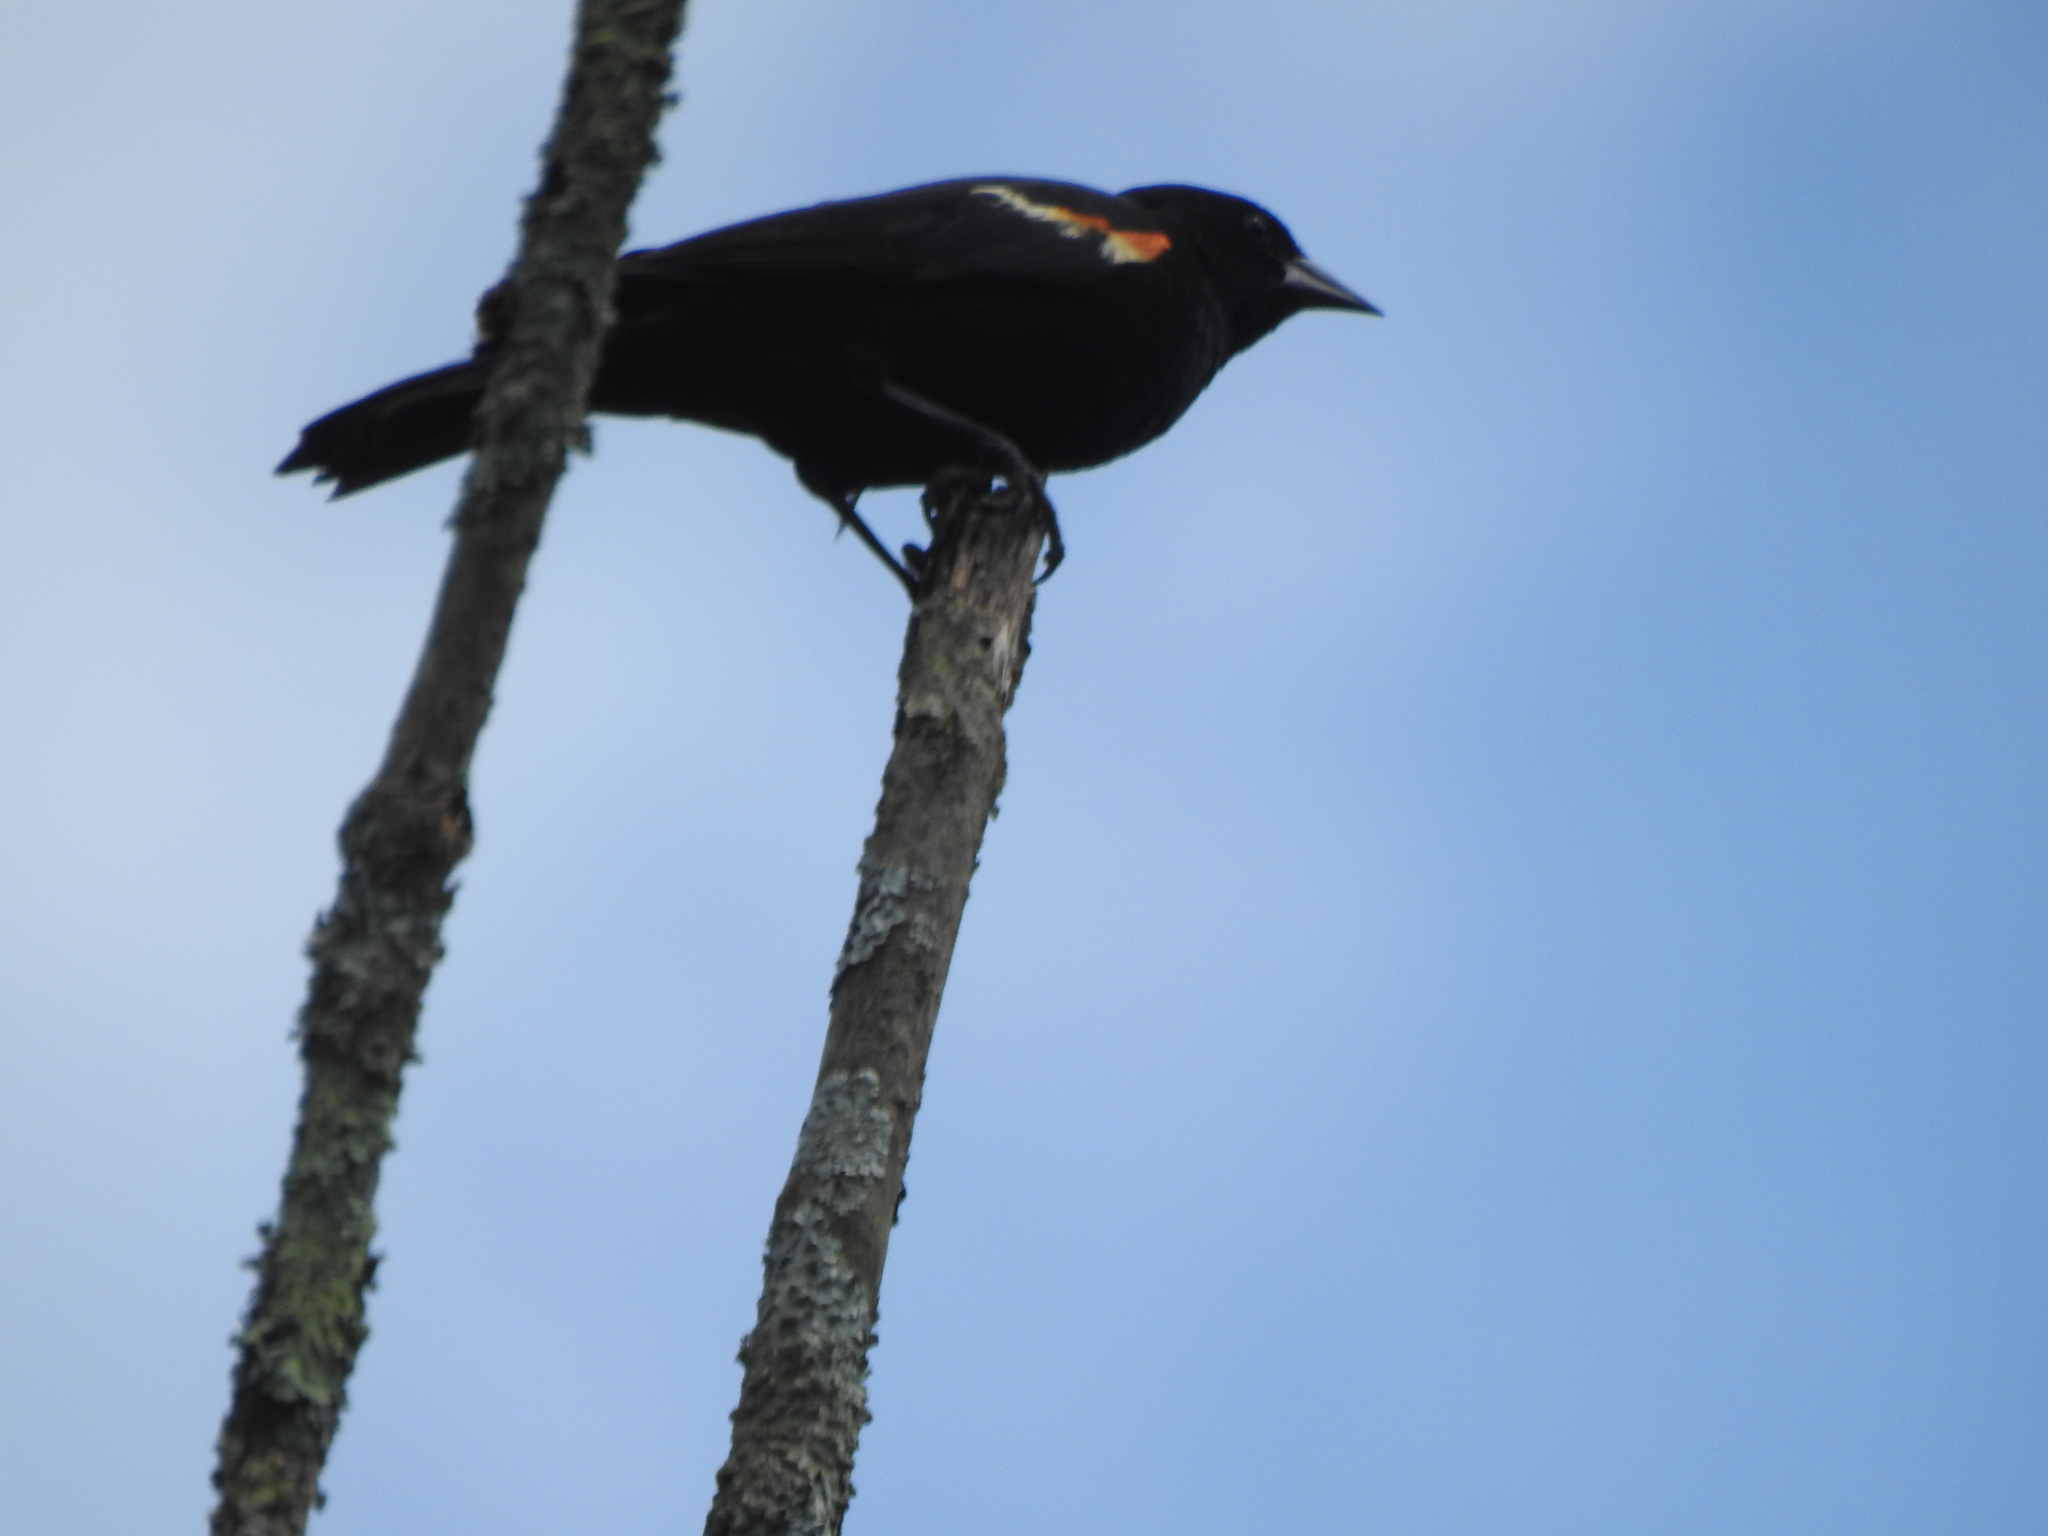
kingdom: Animalia
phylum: Chordata
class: Aves
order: Passeriformes
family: Icteridae
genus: Agelaius
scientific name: Agelaius phoeniceus
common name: Red-winged blackbird
